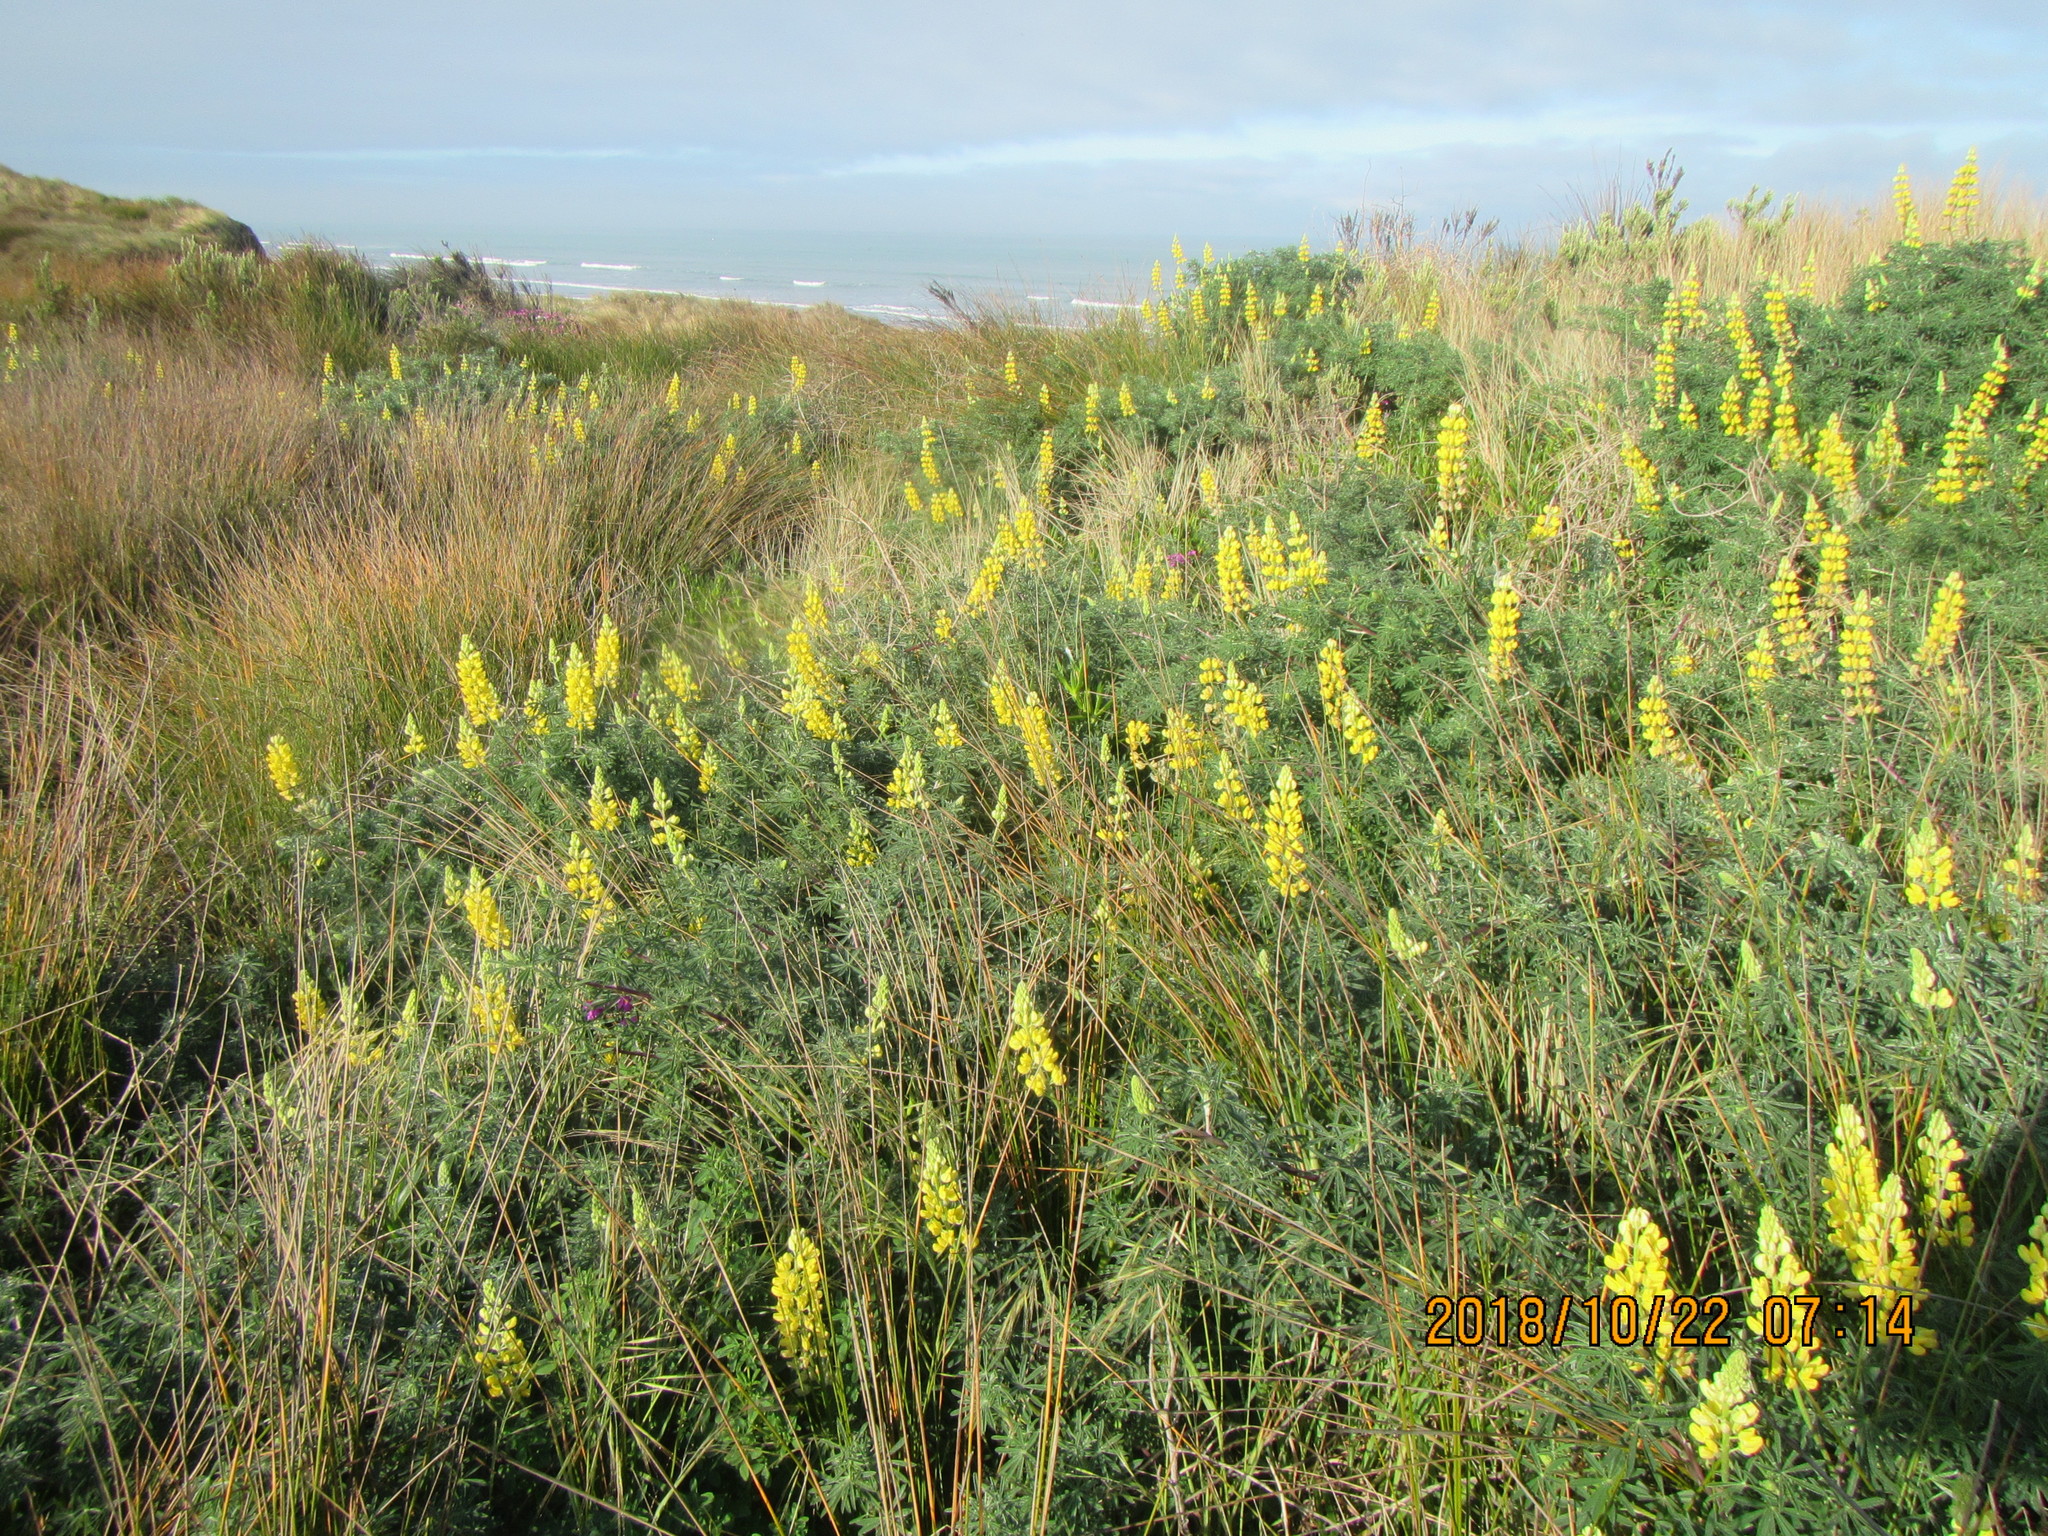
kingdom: Plantae
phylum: Tracheophyta
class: Magnoliopsida
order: Fabales
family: Fabaceae
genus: Lupinus
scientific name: Lupinus arboreus
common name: Yellow bush lupine
